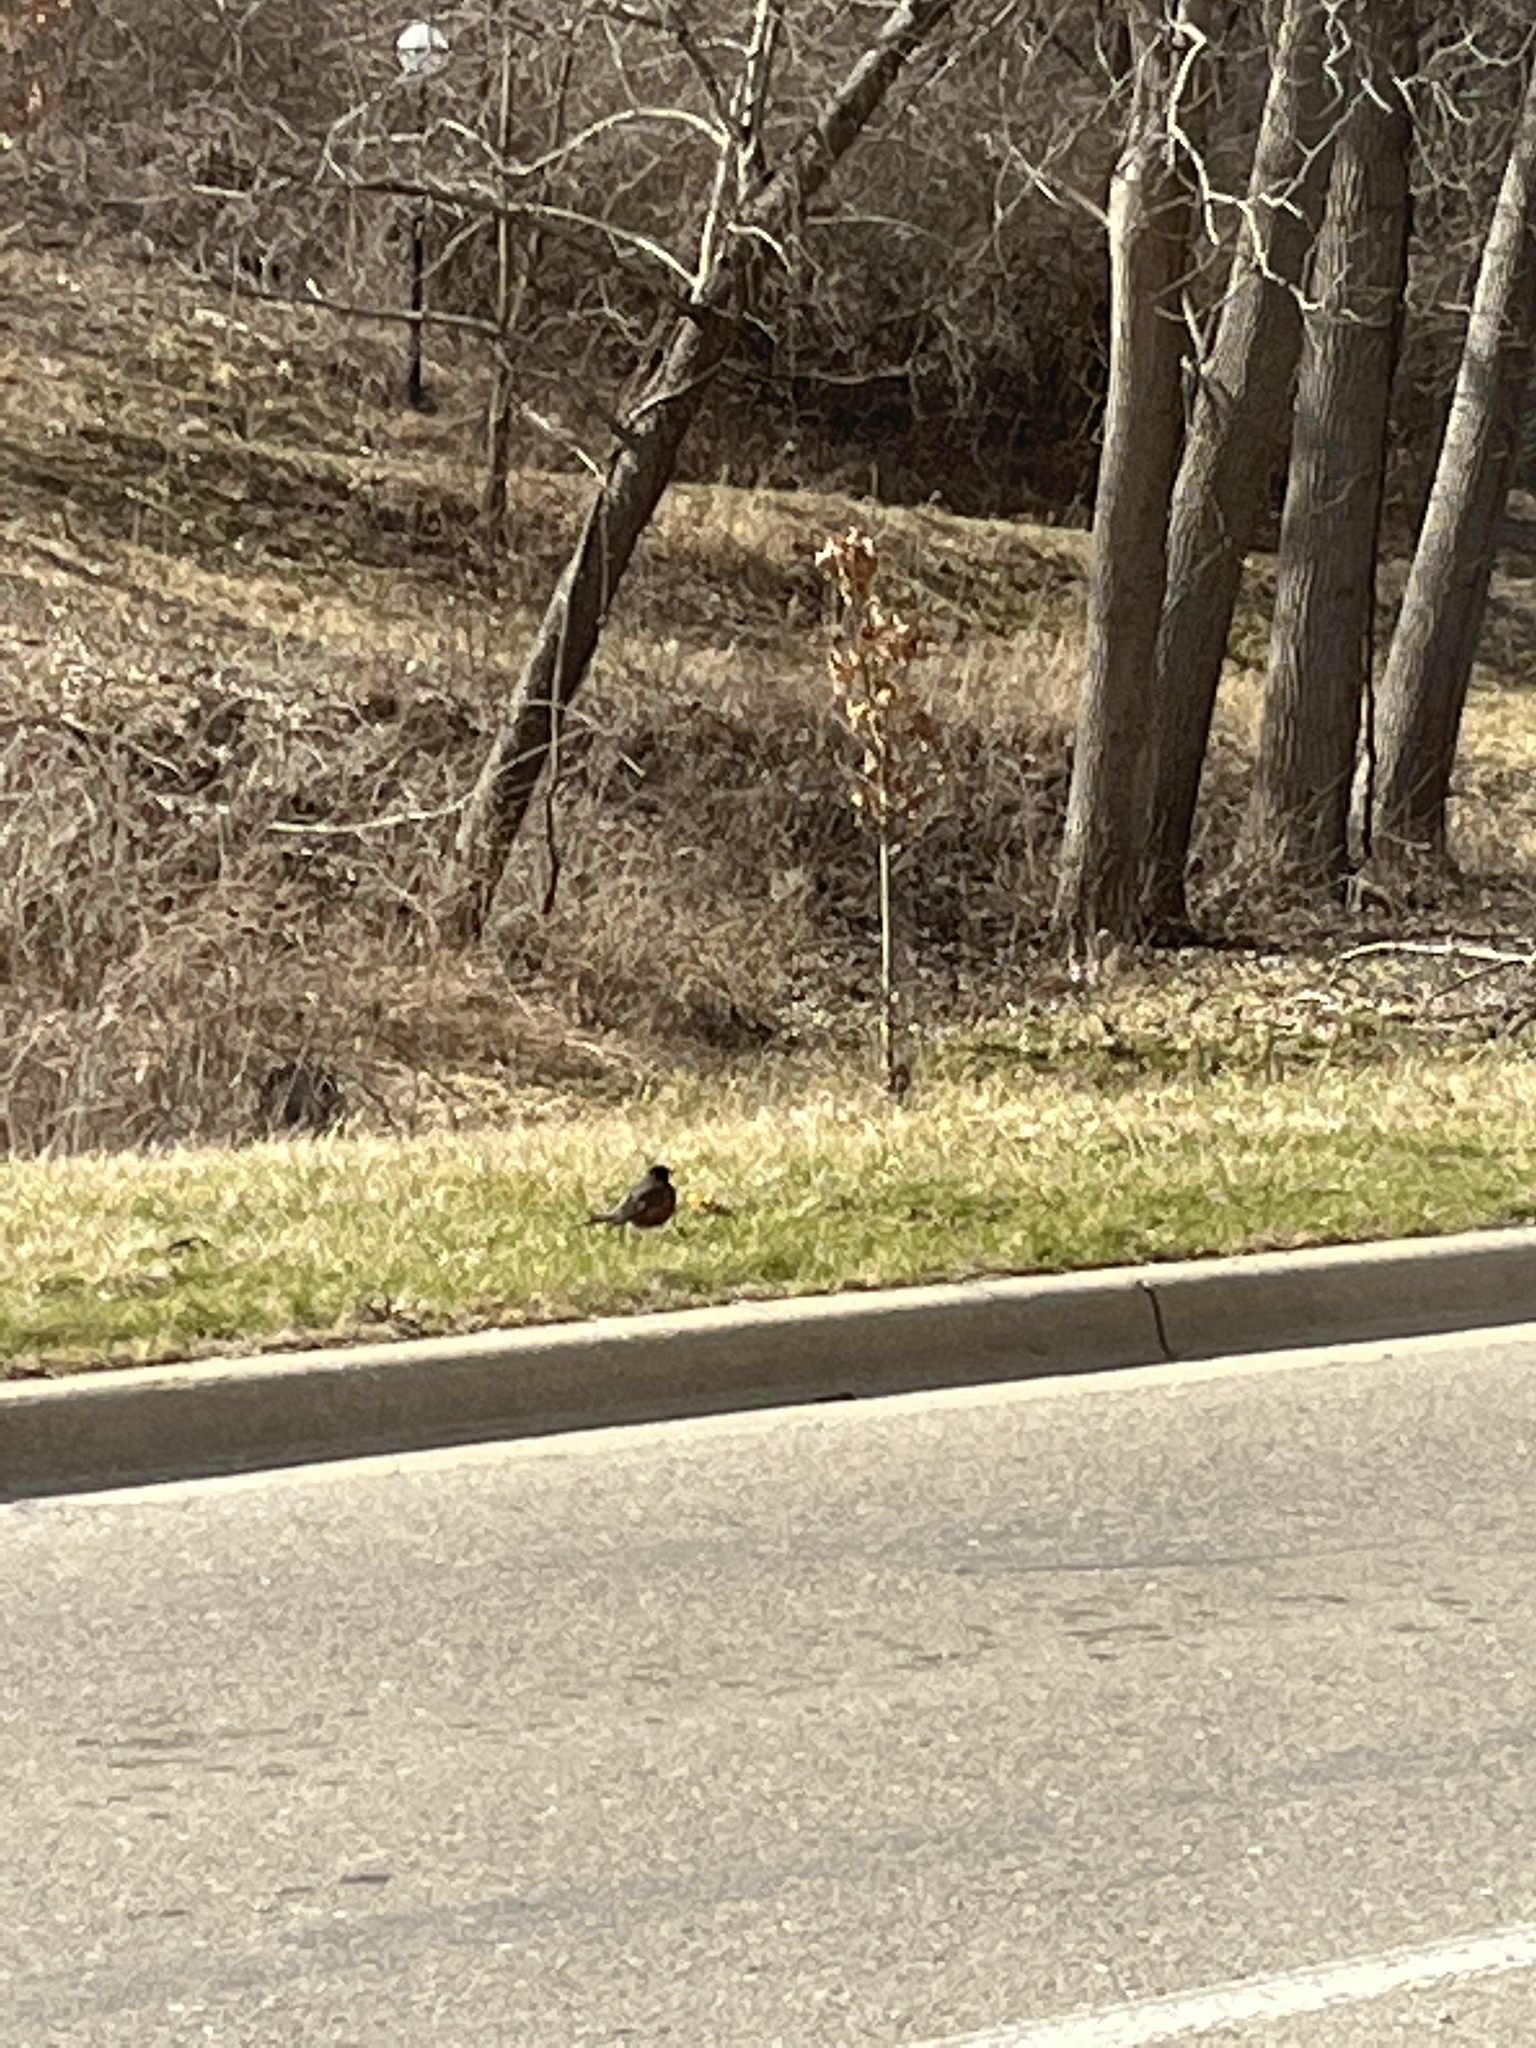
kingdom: Animalia
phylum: Chordata
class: Aves
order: Passeriformes
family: Turdidae
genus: Turdus
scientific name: Turdus migratorius
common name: American robin
